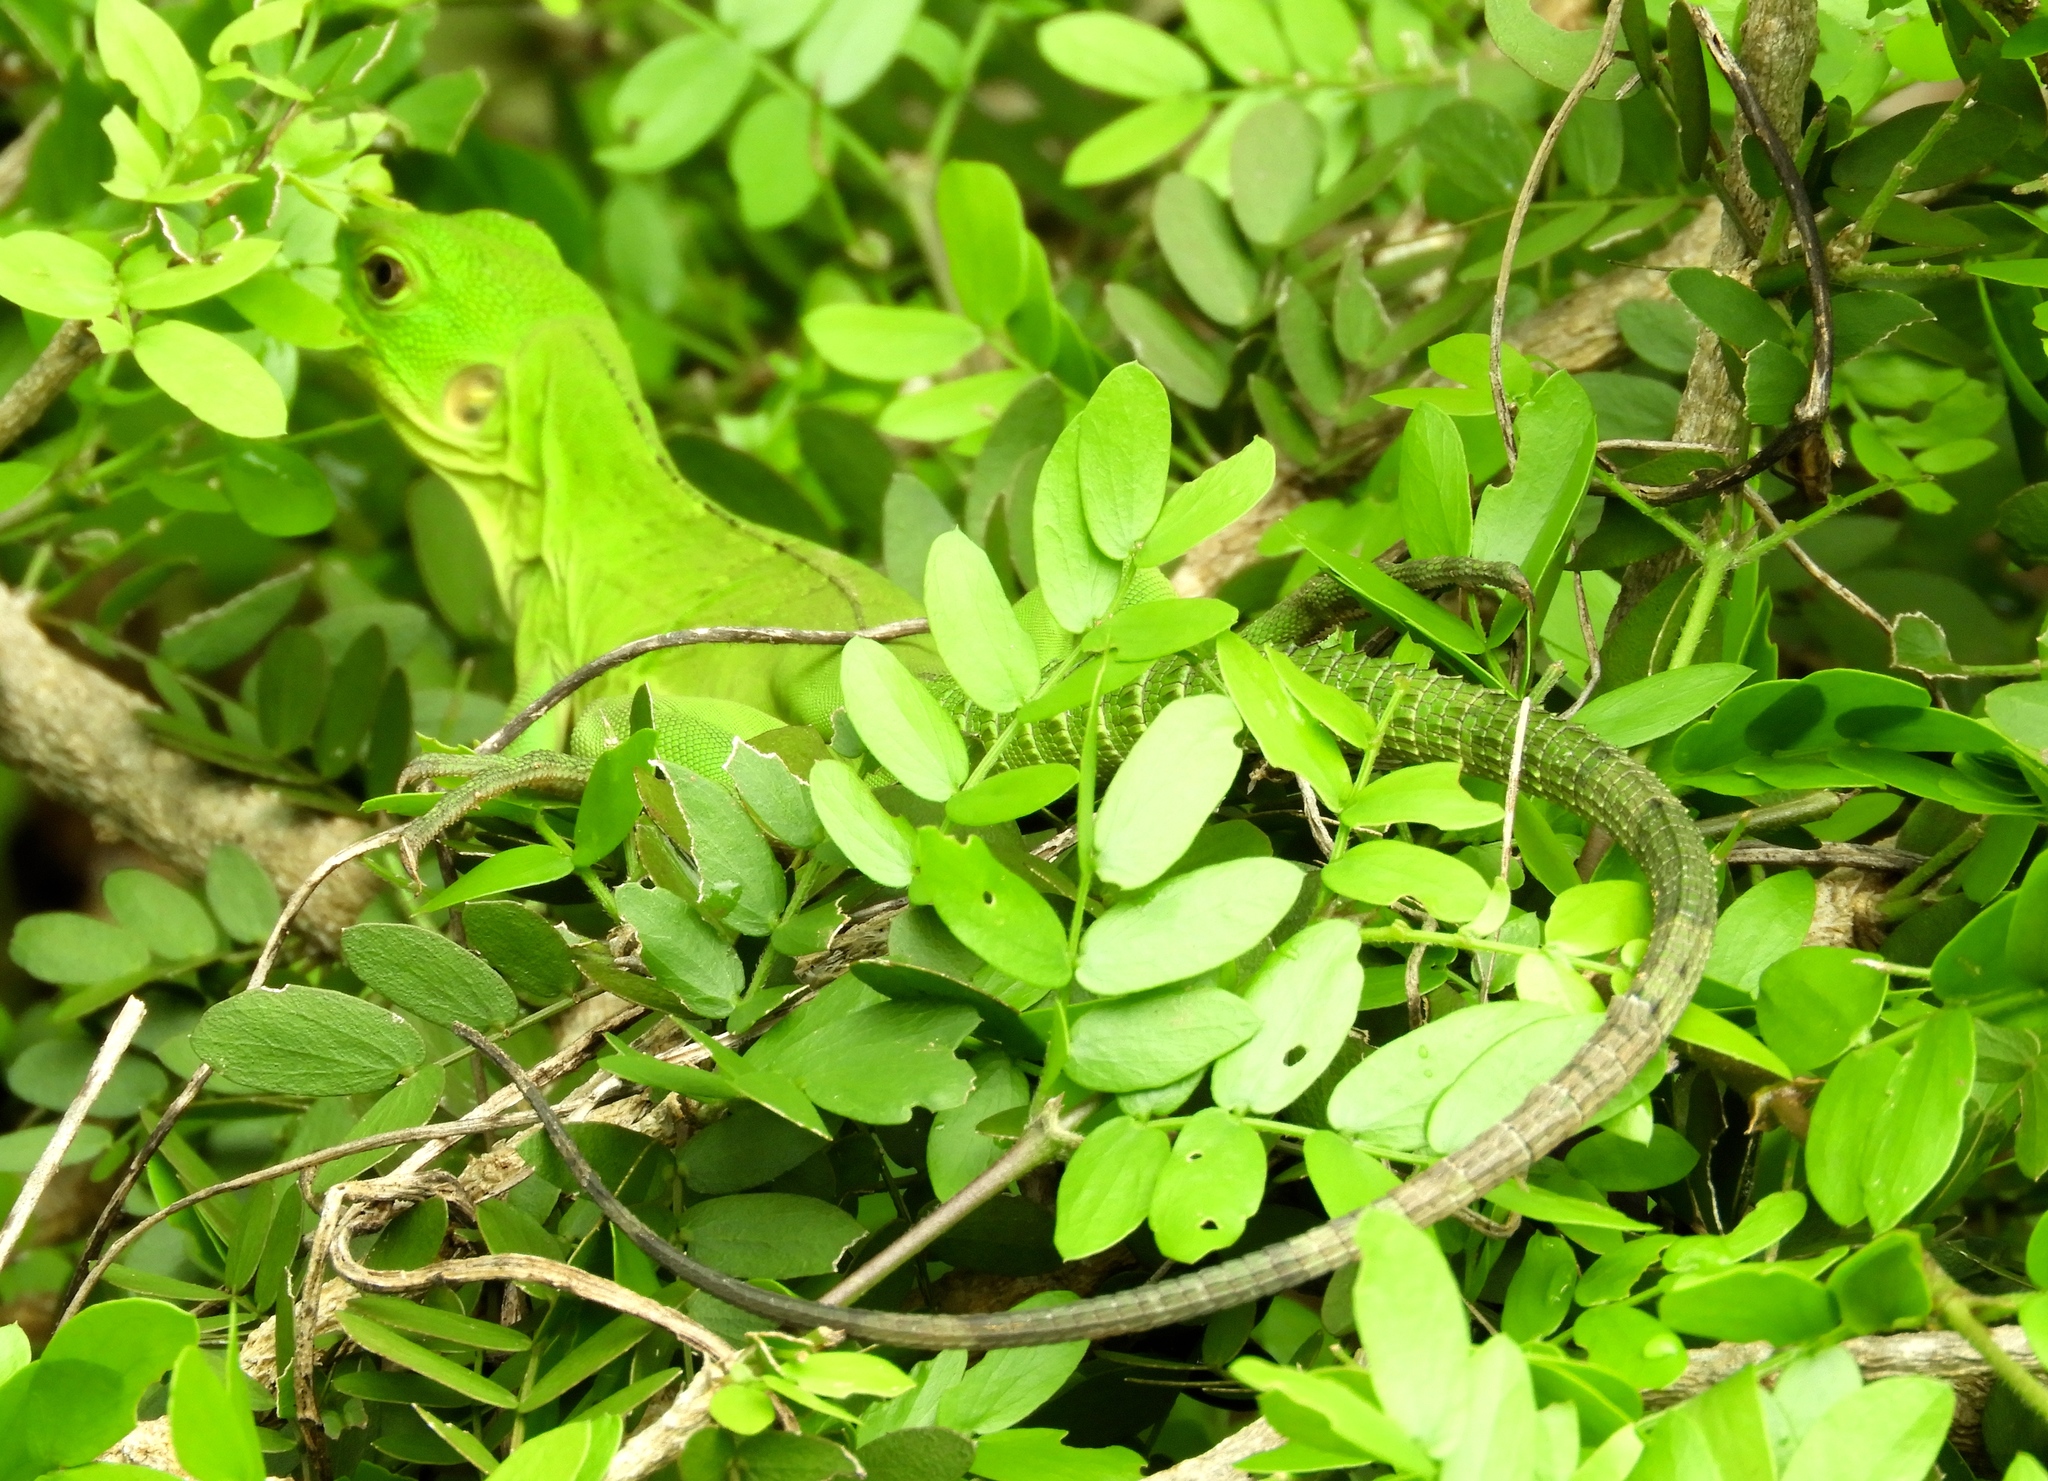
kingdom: Animalia
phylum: Chordata
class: Squamata
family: Iguanidae
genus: Ctenosaura
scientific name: Ctenosaura pectinata
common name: Guerreran spiny-tailed iguana
